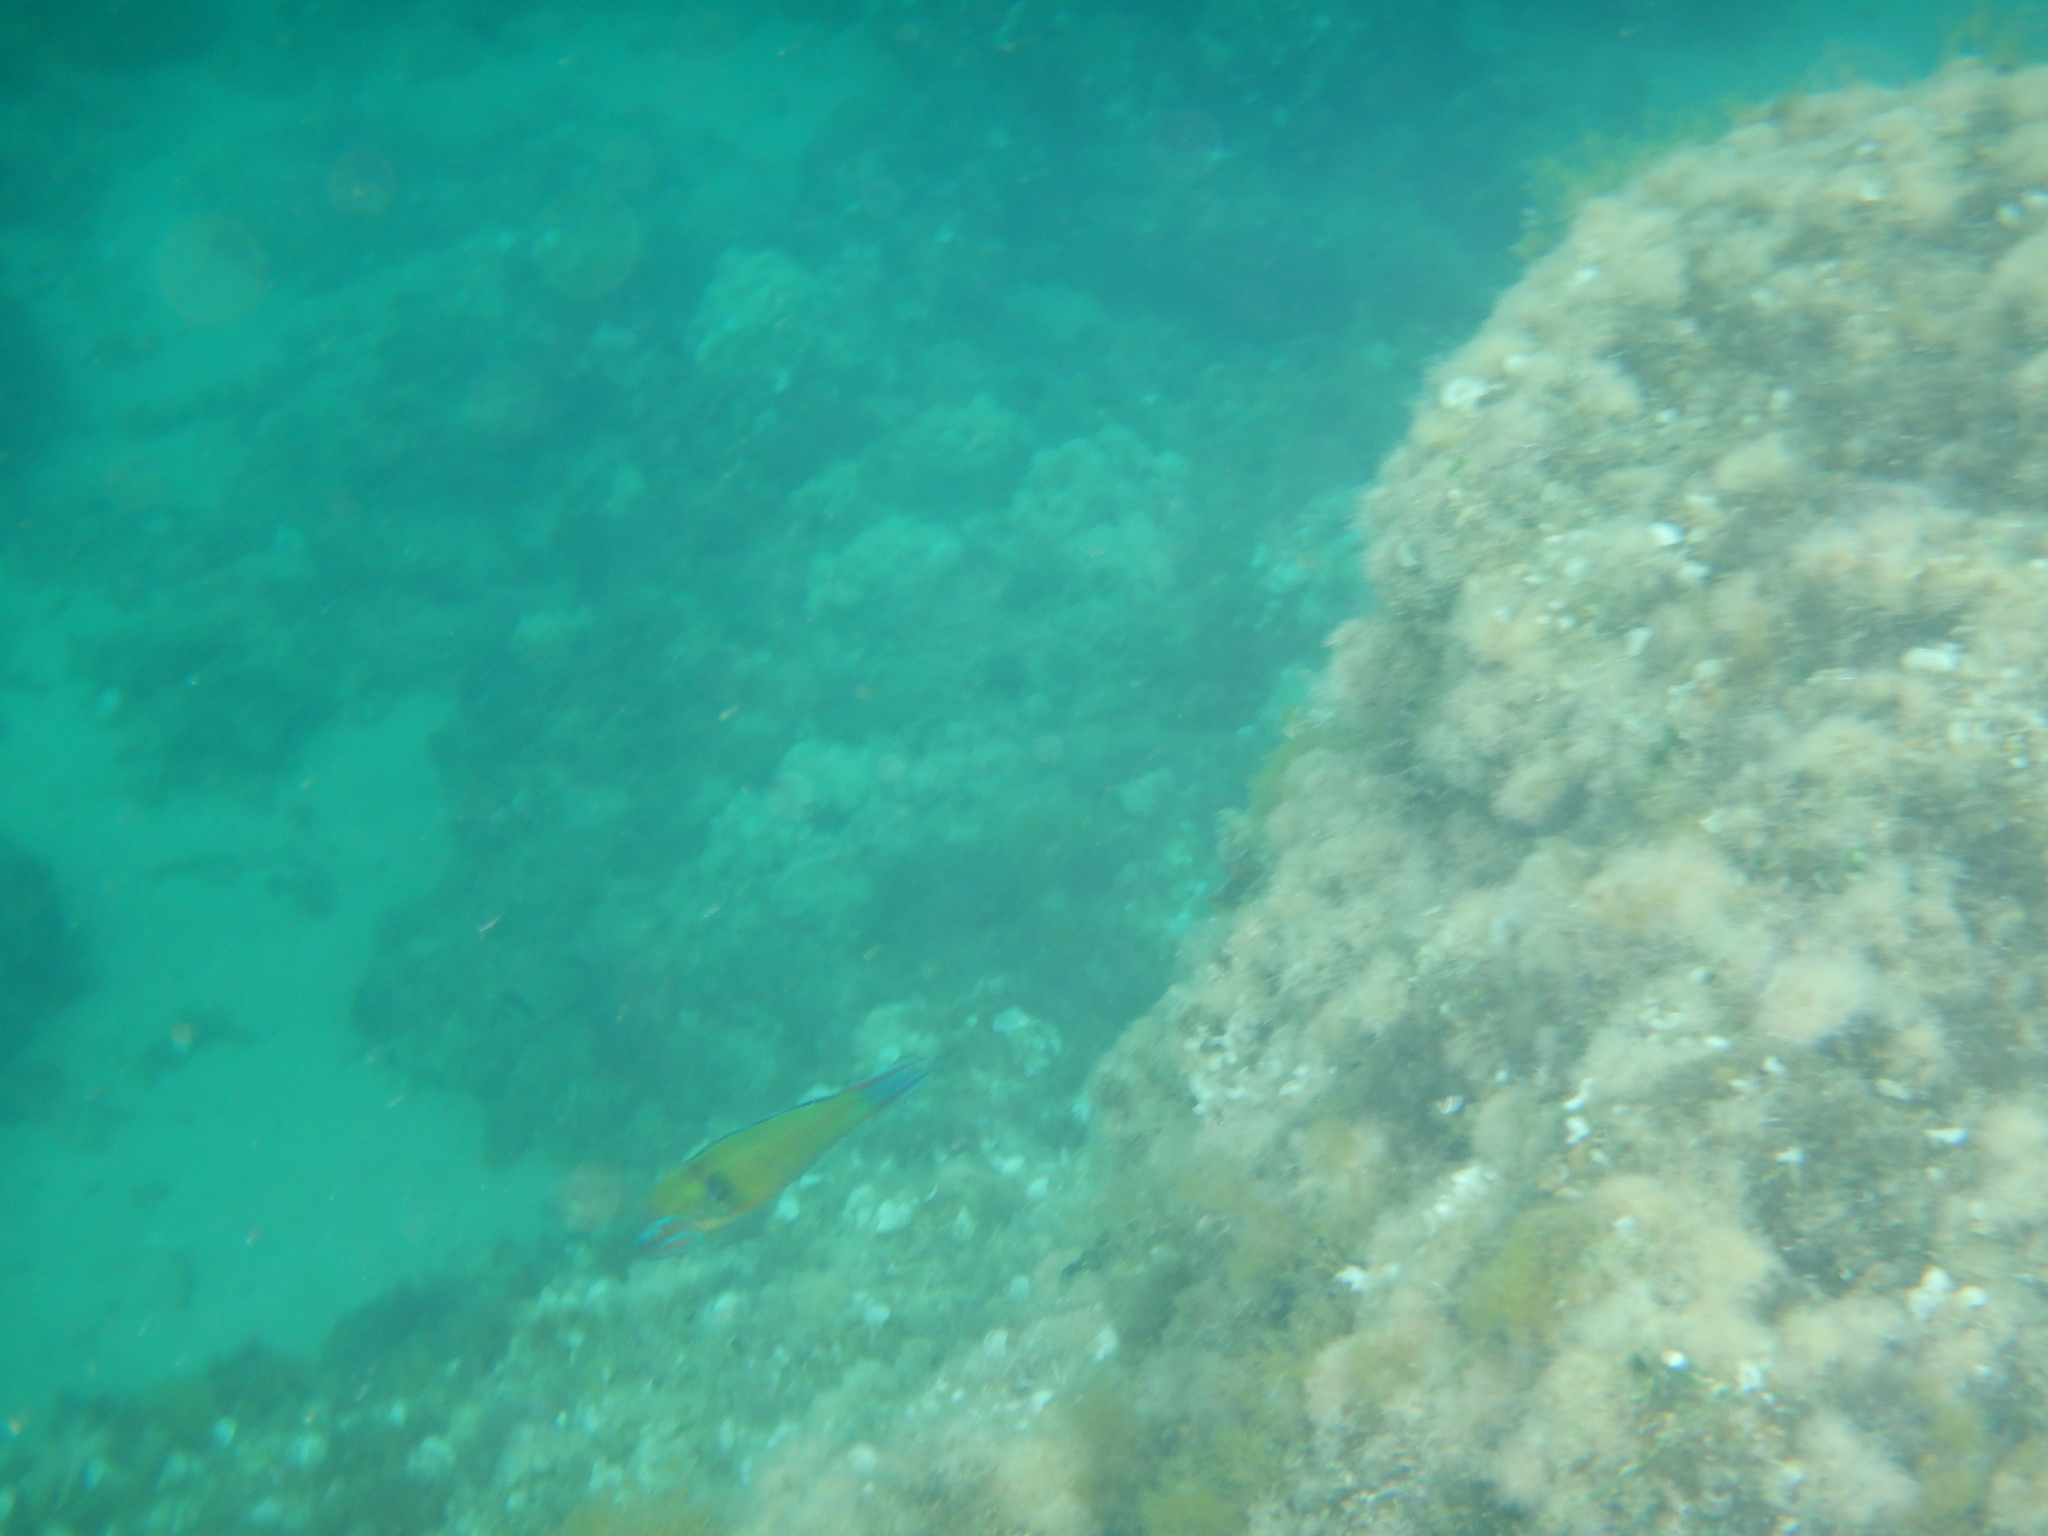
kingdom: Animalia
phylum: Chordata
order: Perciformes
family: Labridae
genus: Thalassoma
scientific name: Thalassoma pavo
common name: Ornate wrasse
